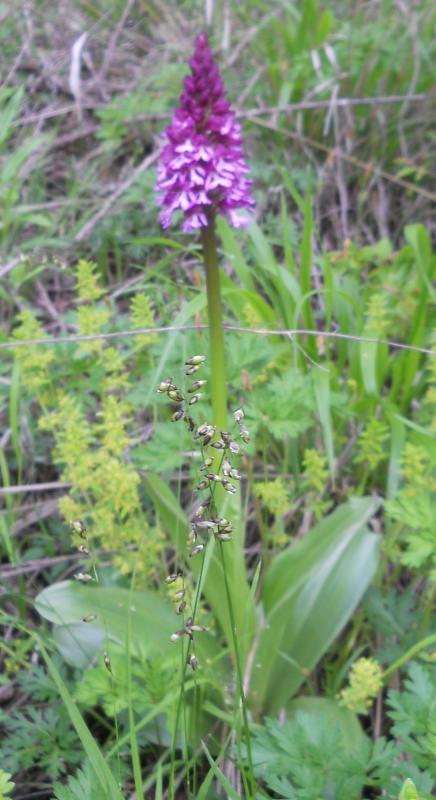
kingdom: Plantae
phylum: Tracheophyta
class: Liliopsida
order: Asparagales
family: Orchidaceae
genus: Orchis
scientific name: Orchis purpurea
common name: Lady orchid
